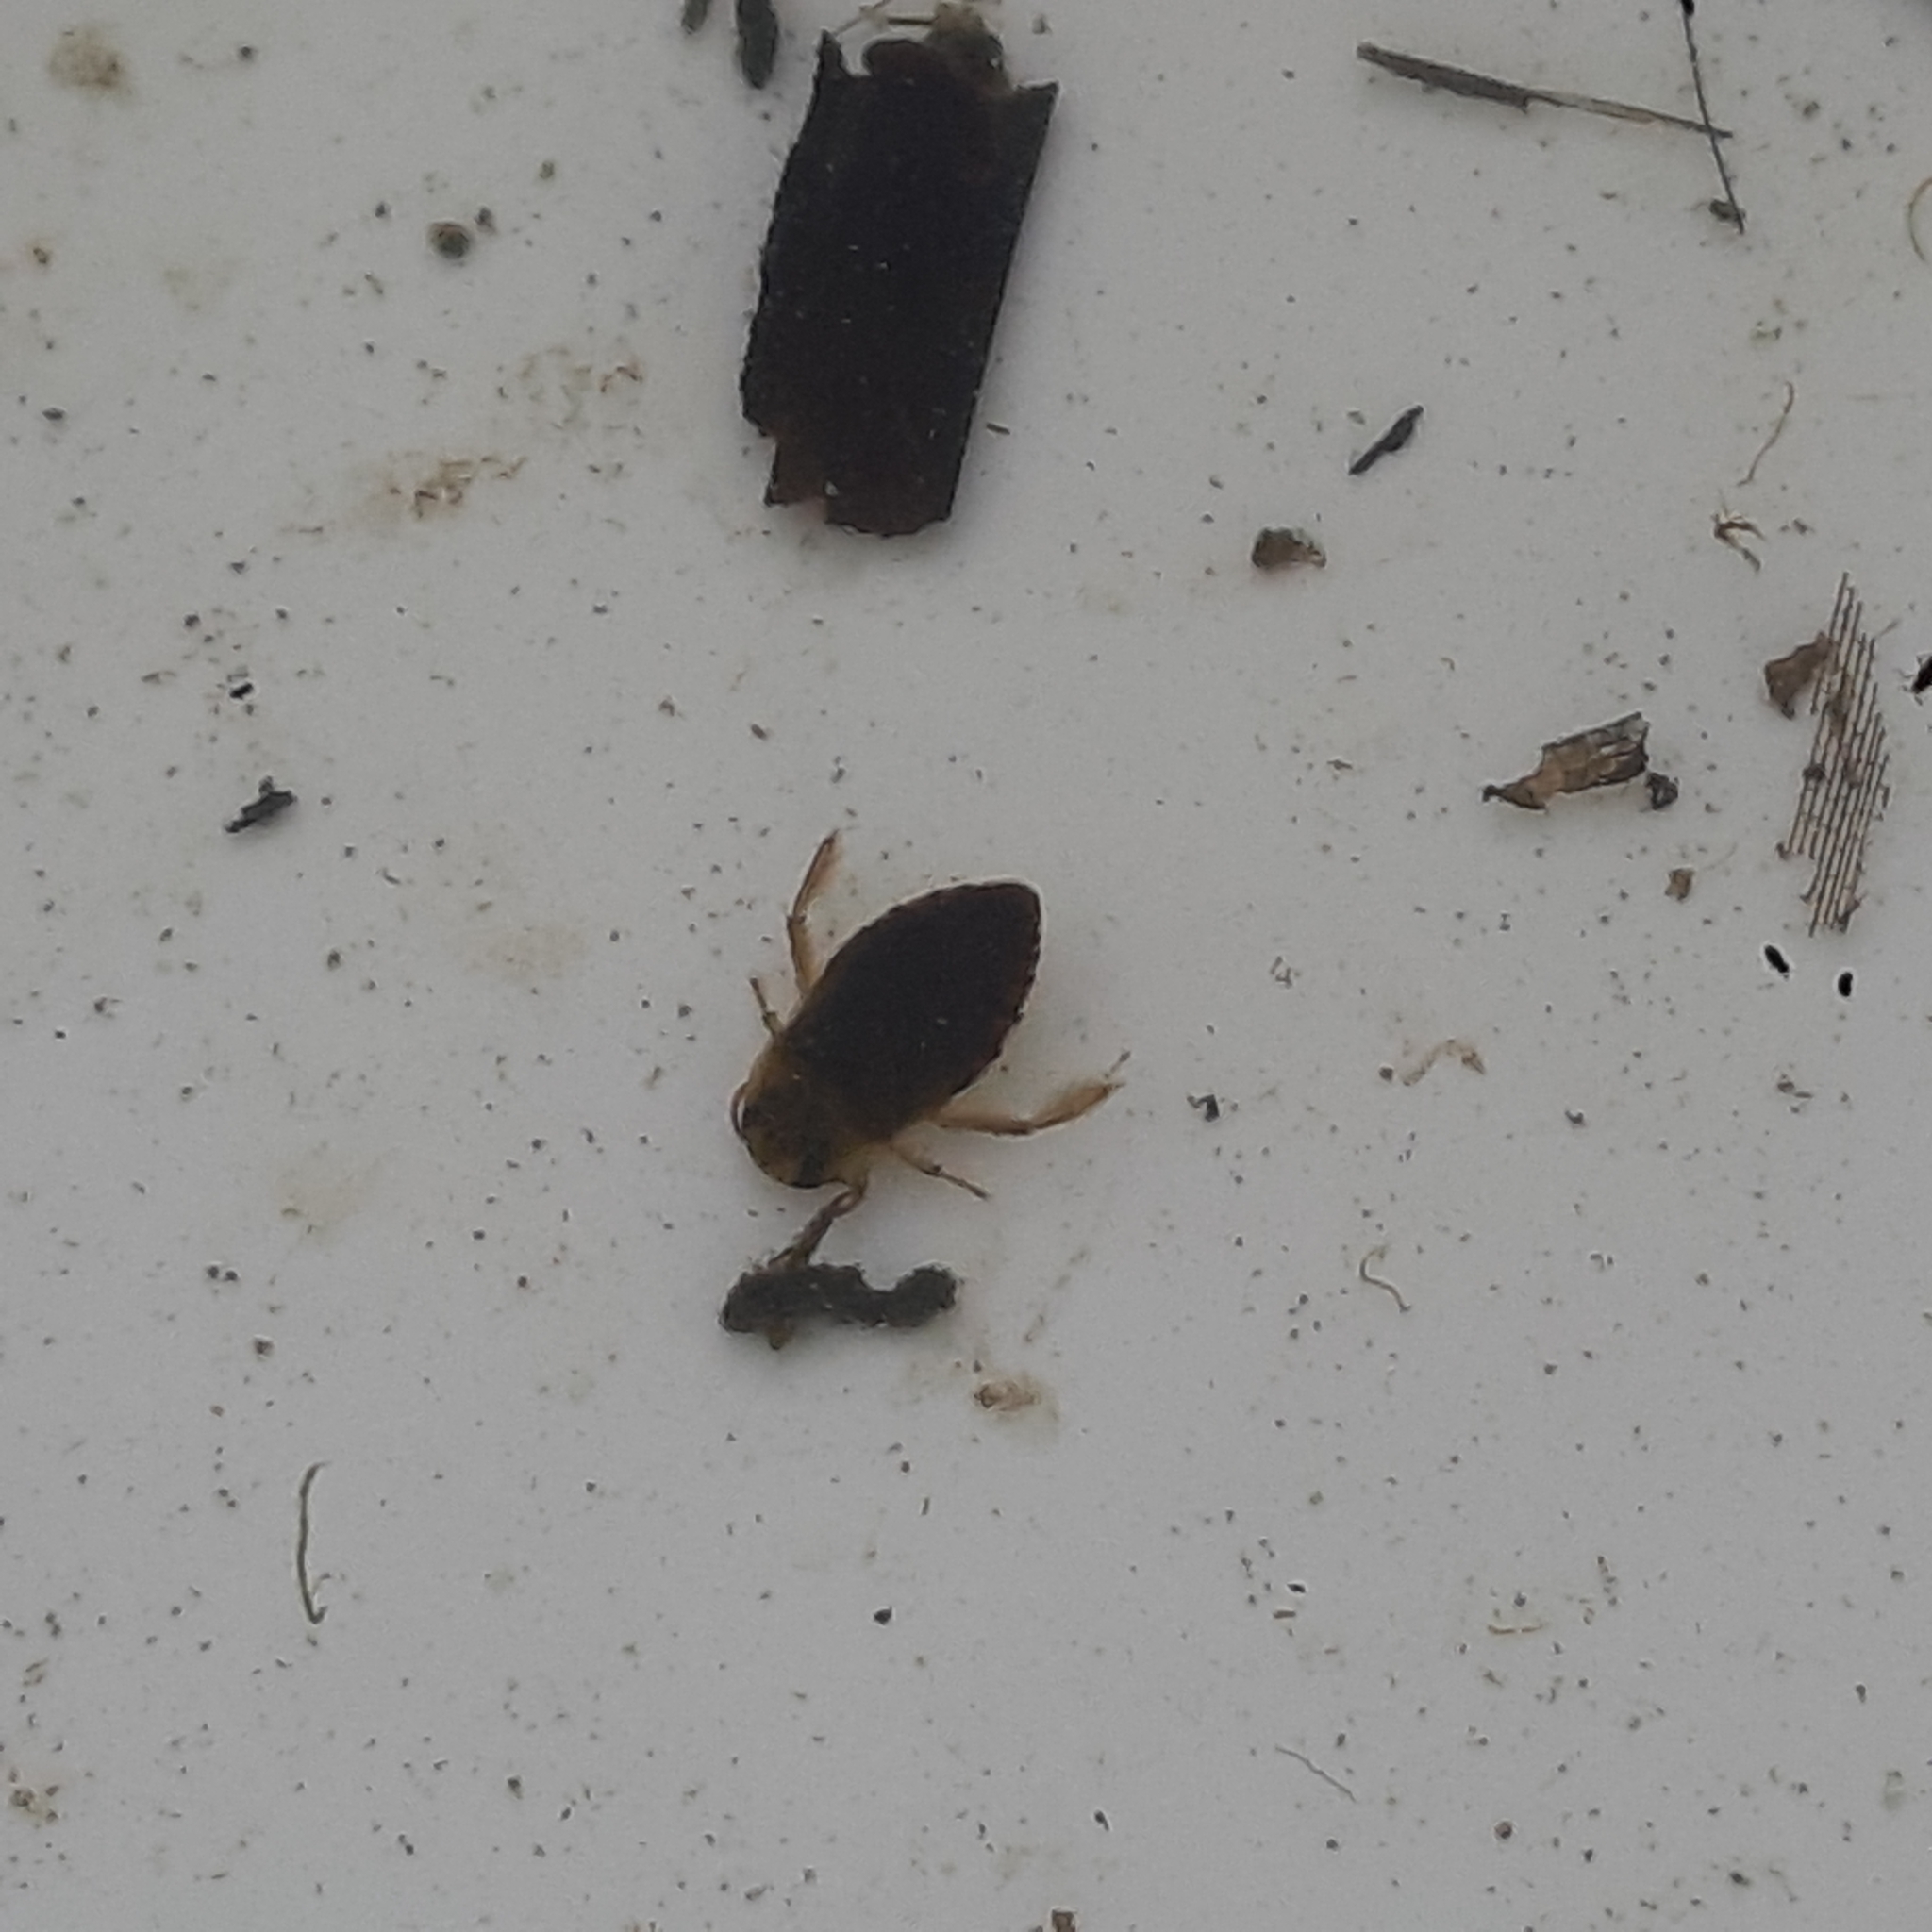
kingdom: Animalia
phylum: Arthropoda
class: Insecta
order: Hemiptera
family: Naucoridae
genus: Ilyocoris
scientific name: Ilyocoris cimicoides
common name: Saucer bugs
